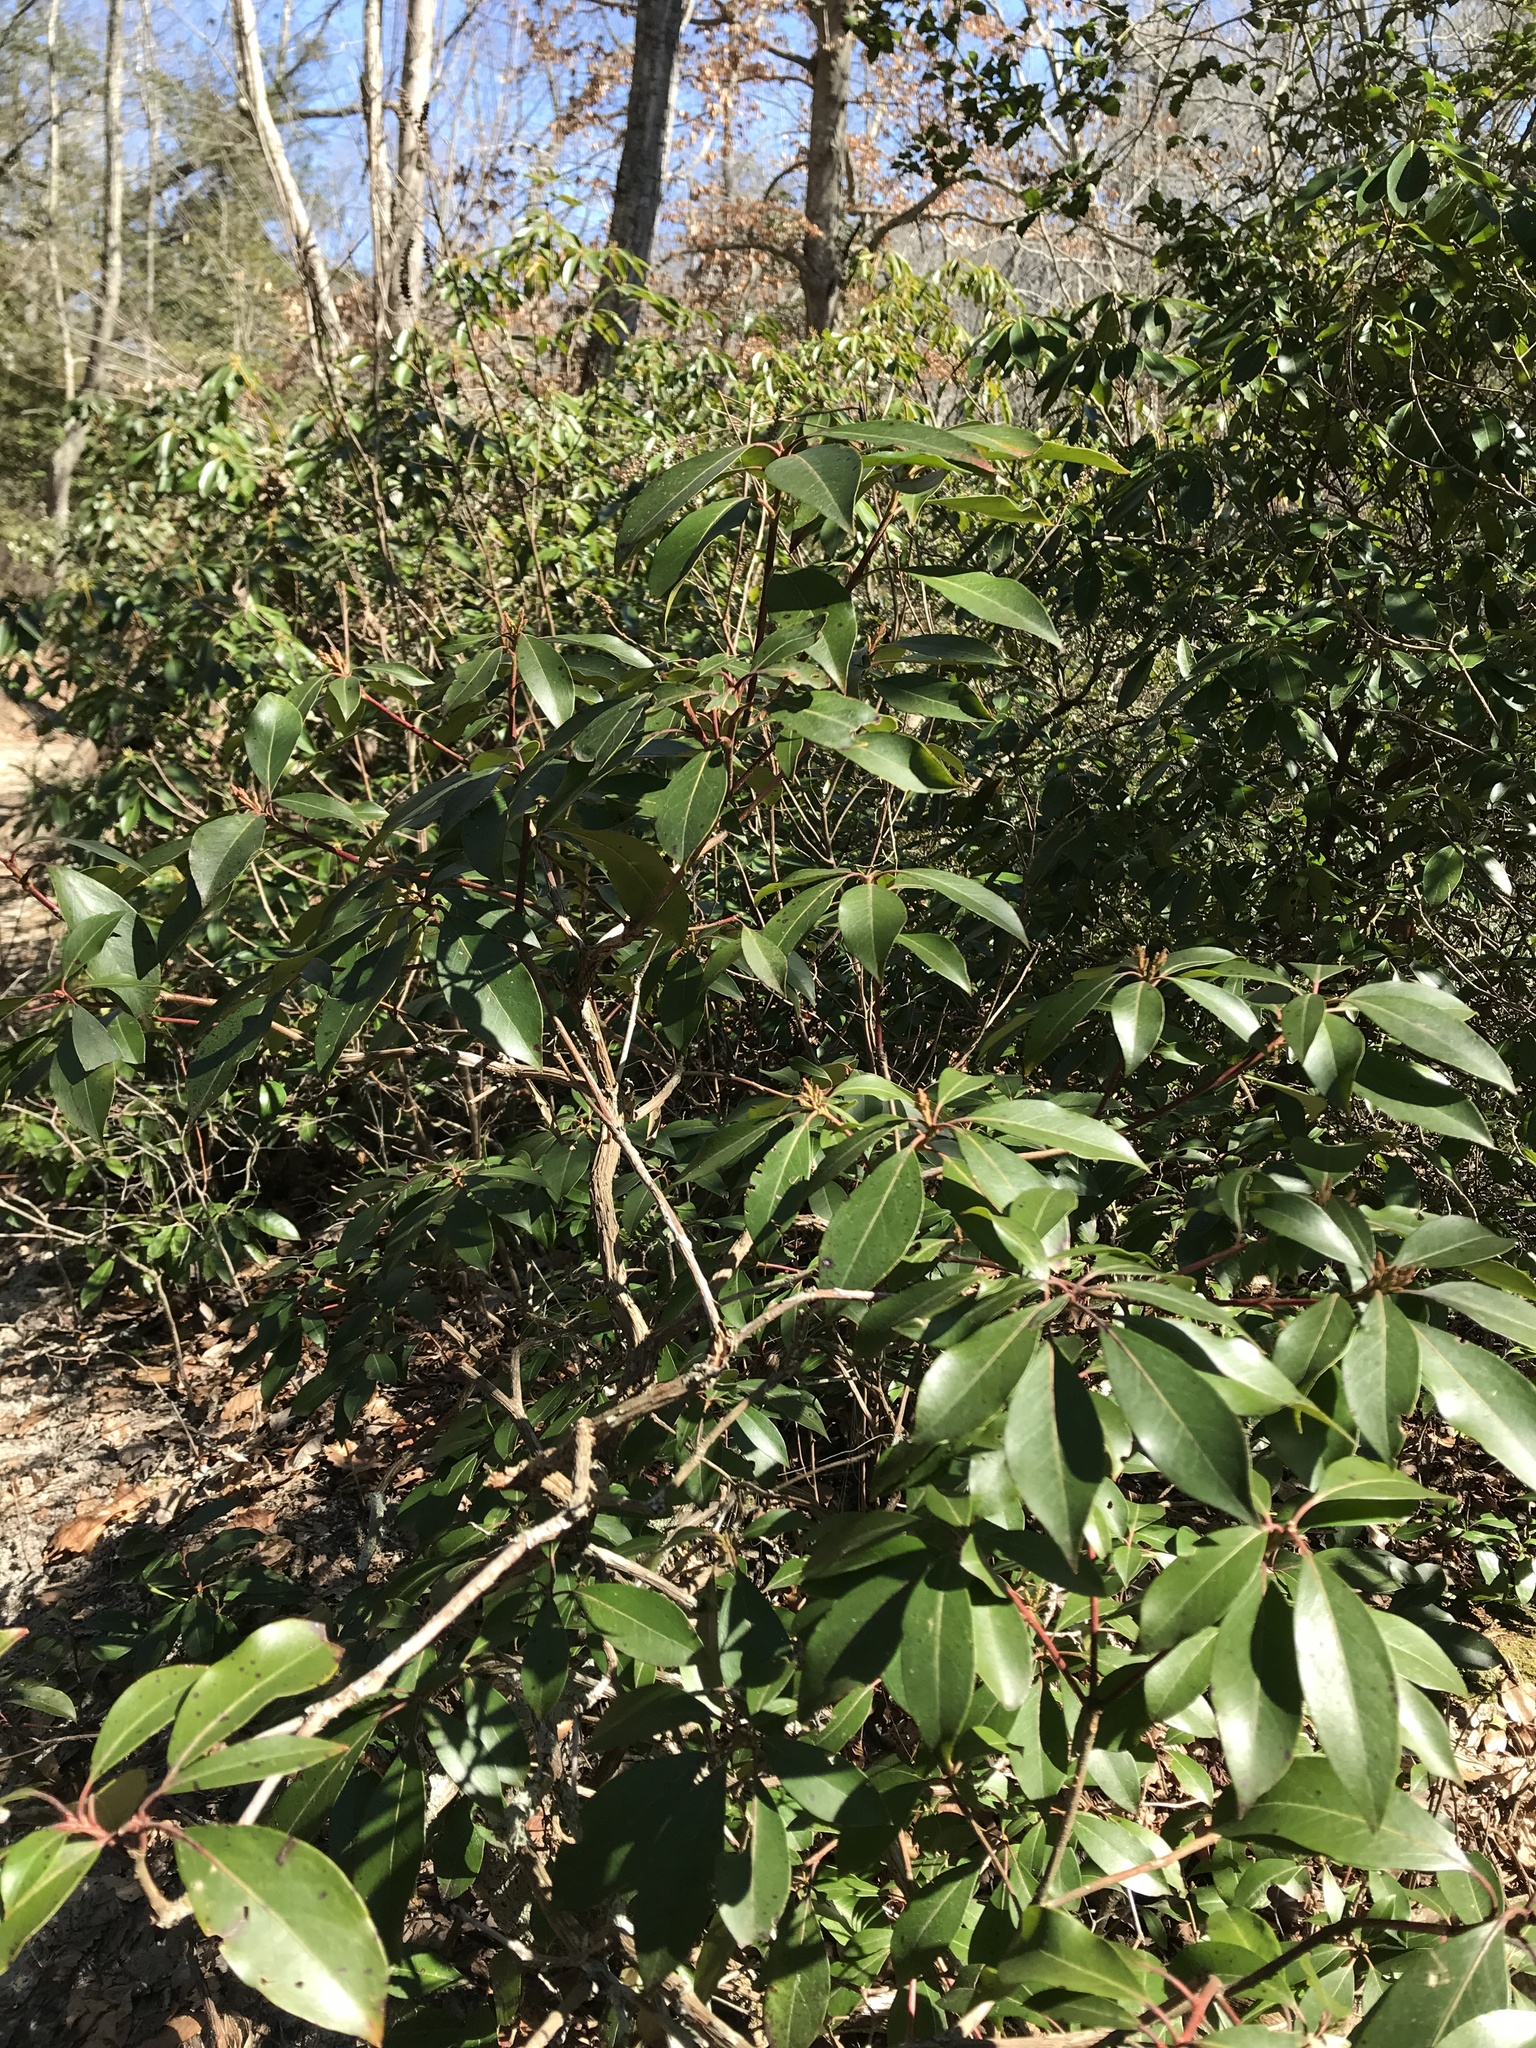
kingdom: Plantae
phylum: Tracheophyta
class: Magnoliopsida
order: Ericales
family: Ericaceae
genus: Kalmia
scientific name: Kalmia latifolia
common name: Mountain-laurel
